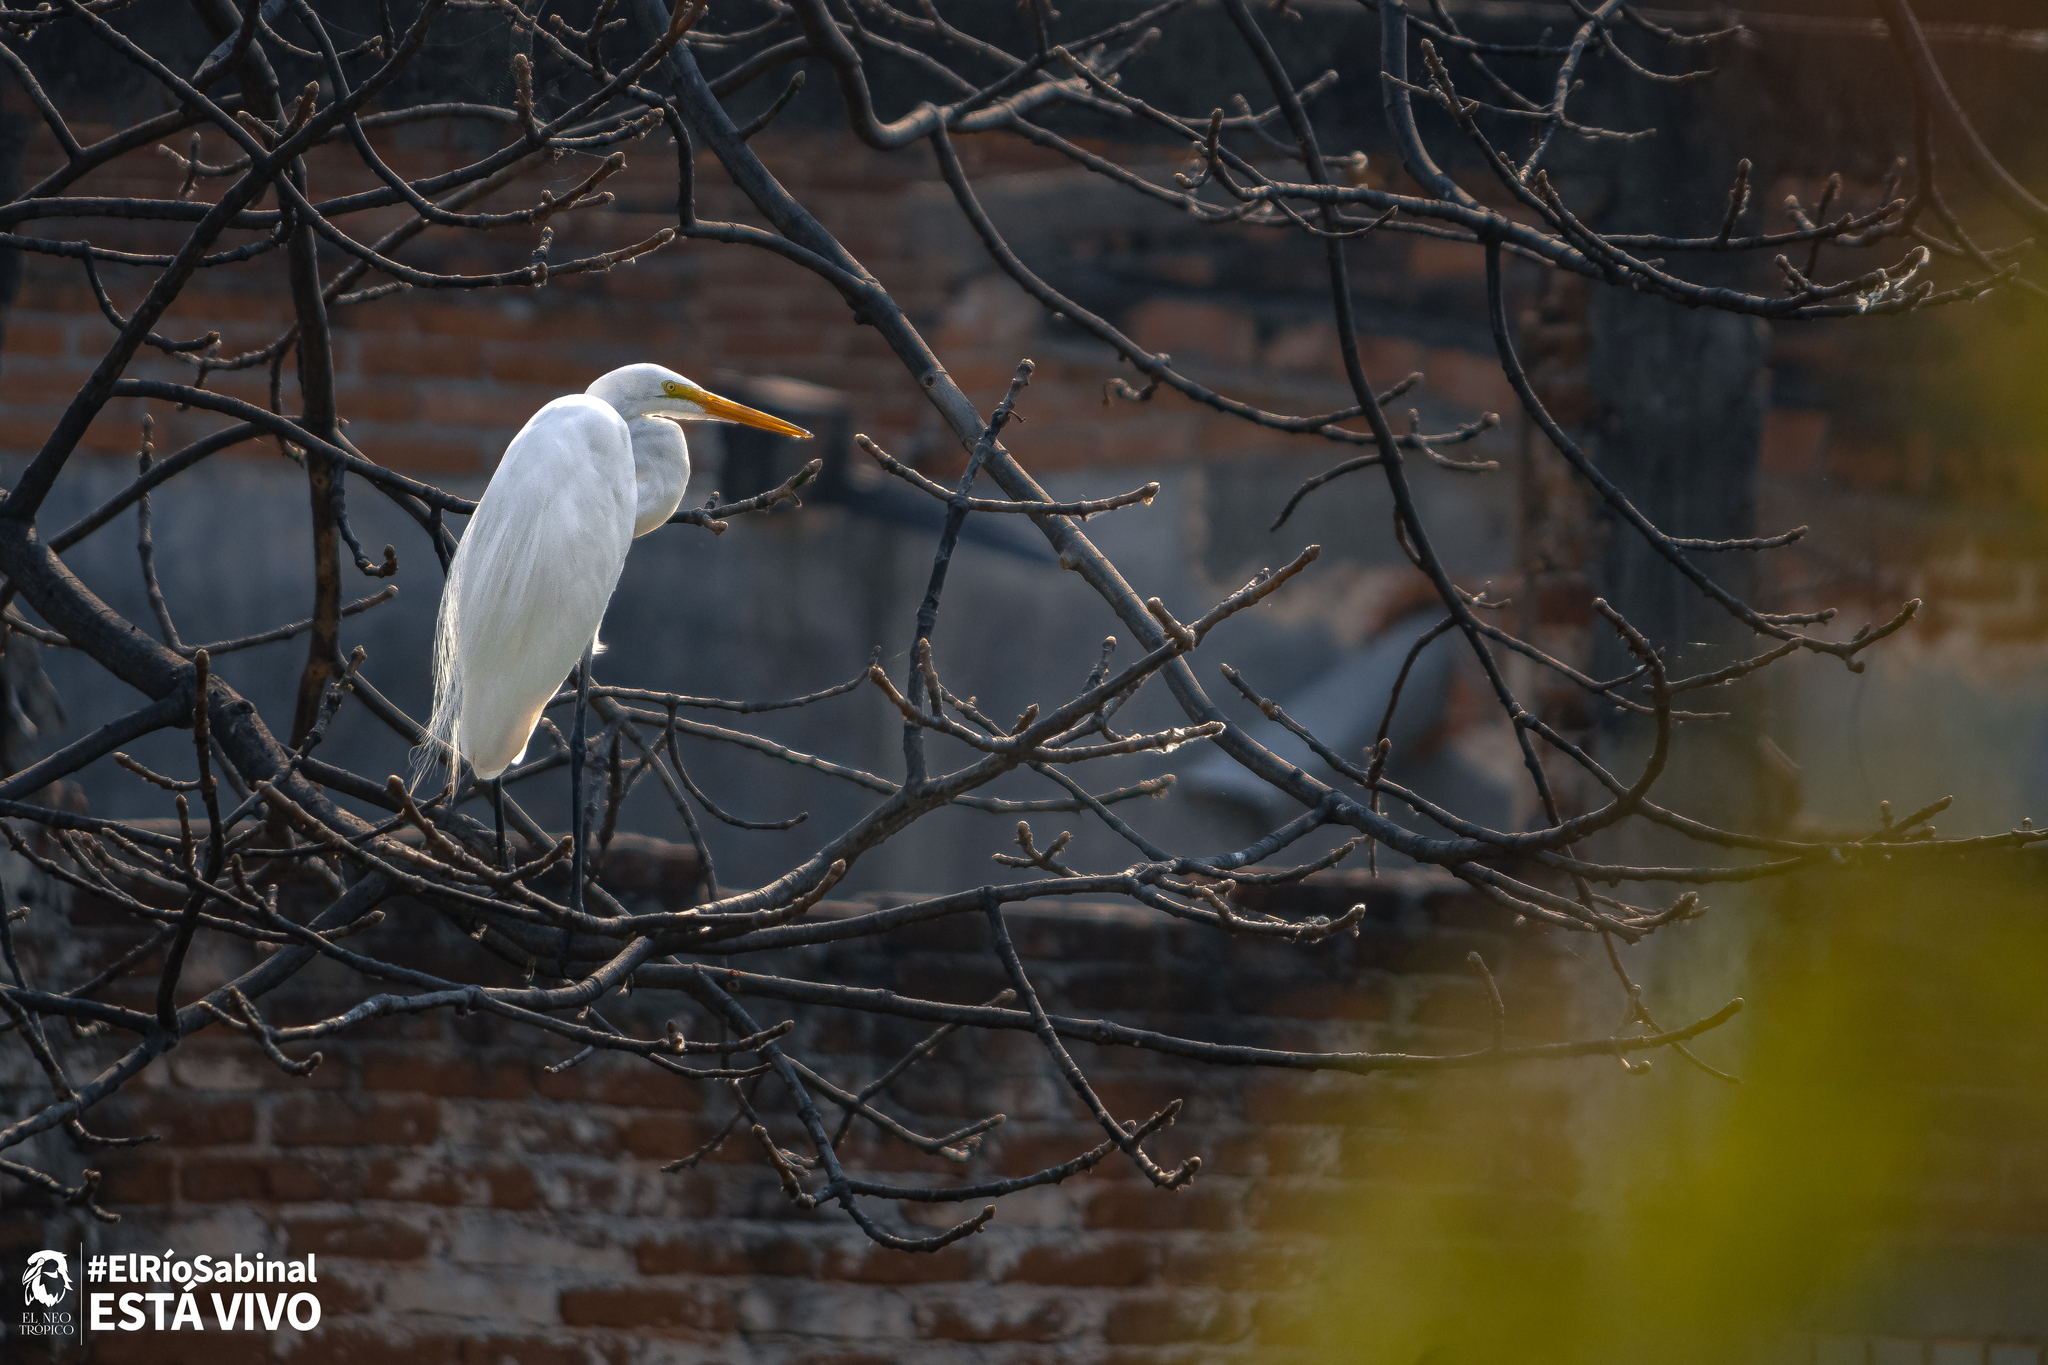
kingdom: Animalia
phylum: Chordata
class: Aves
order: Pelecaniformes
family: Ardeidae
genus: Ardea
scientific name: Ardea alba
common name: Great egret
